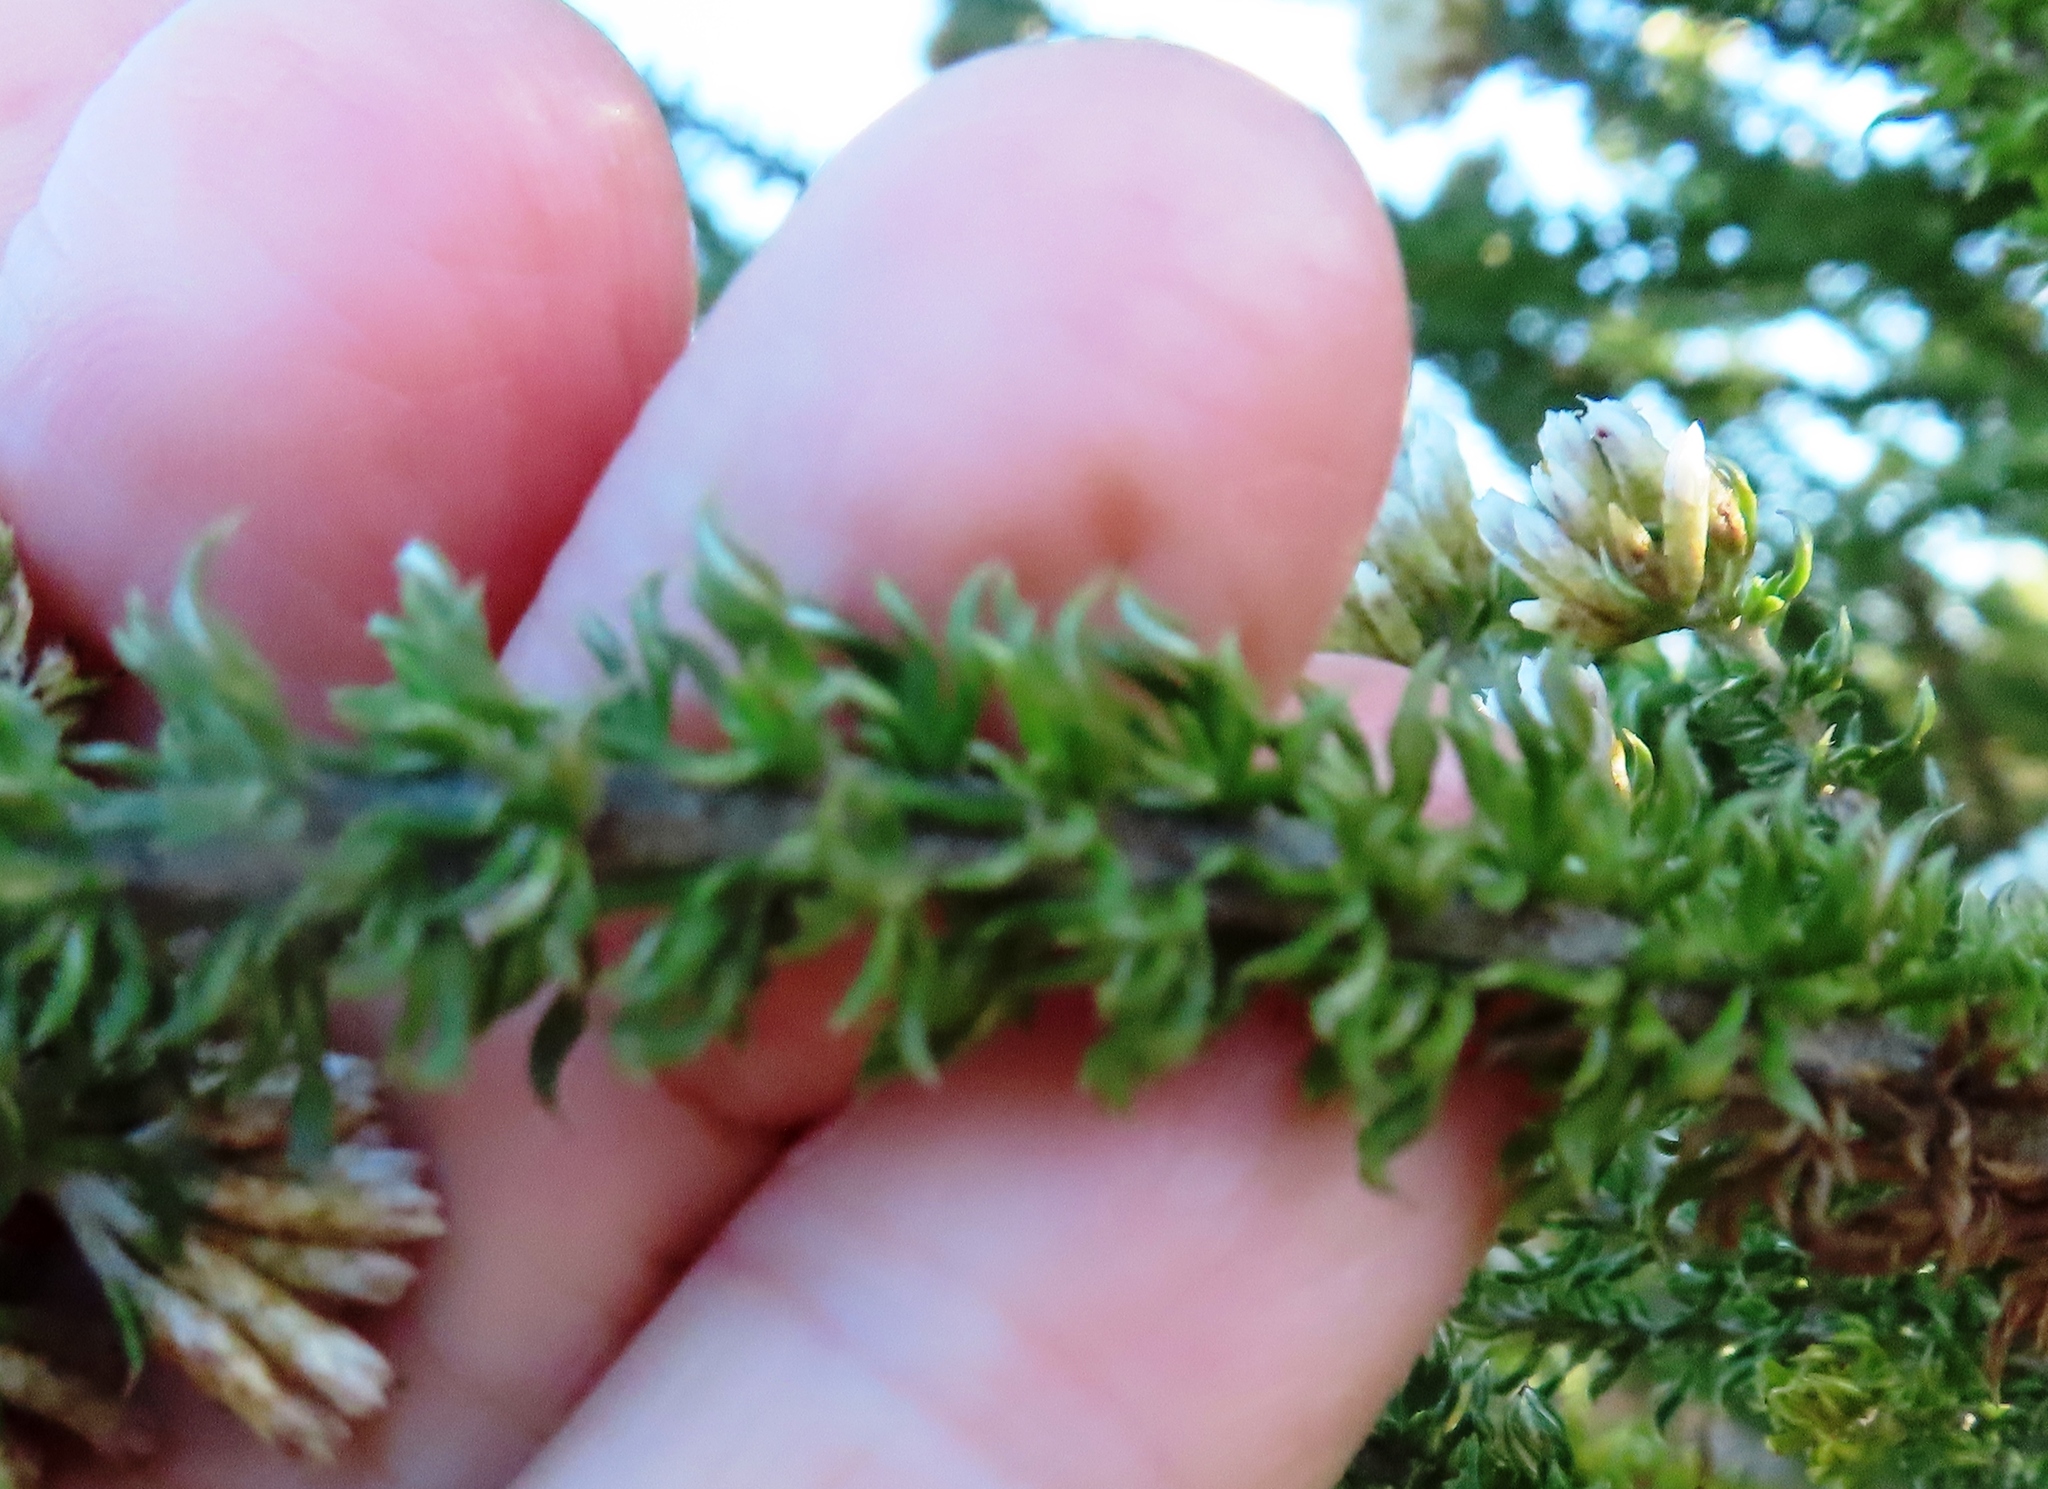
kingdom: Plantae
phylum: Tracheophyta
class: Magnoliopsida
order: Asterales
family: Asteraceae
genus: Metalasia
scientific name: Metalasia muricata
